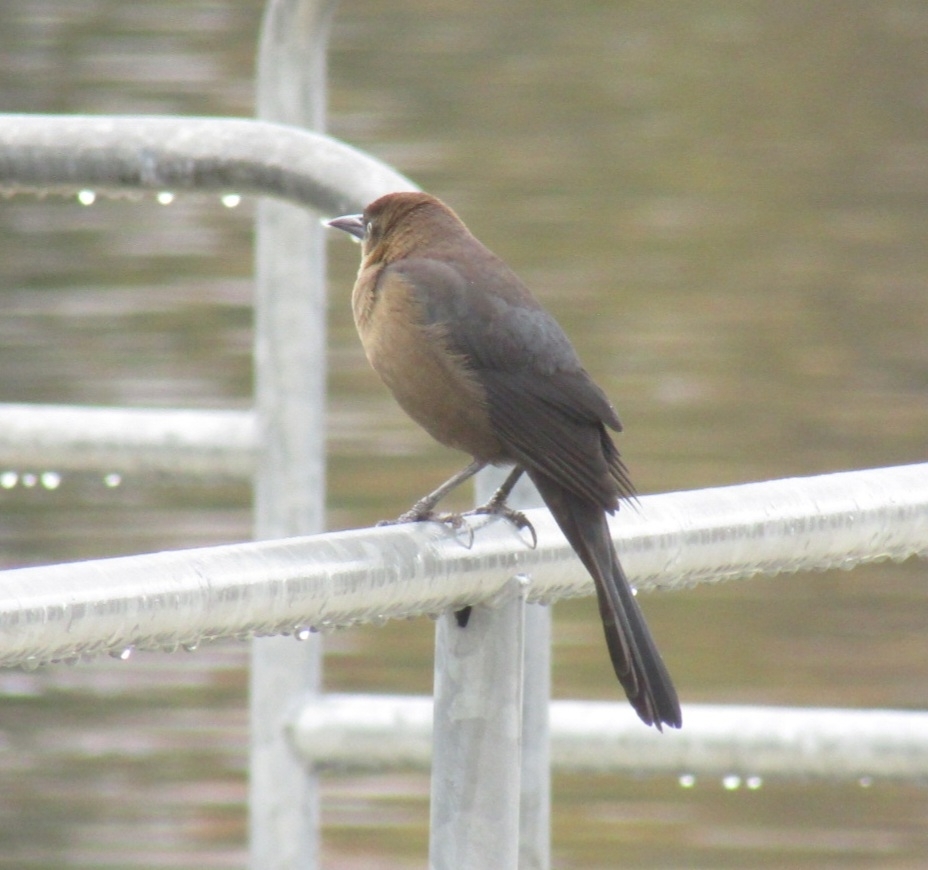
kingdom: Animalia
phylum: Chordata
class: Aves
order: Passeriformes
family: Icteridae
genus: Quiscalus
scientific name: Quiscalus mexicanus
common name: Great-tailed grackle
